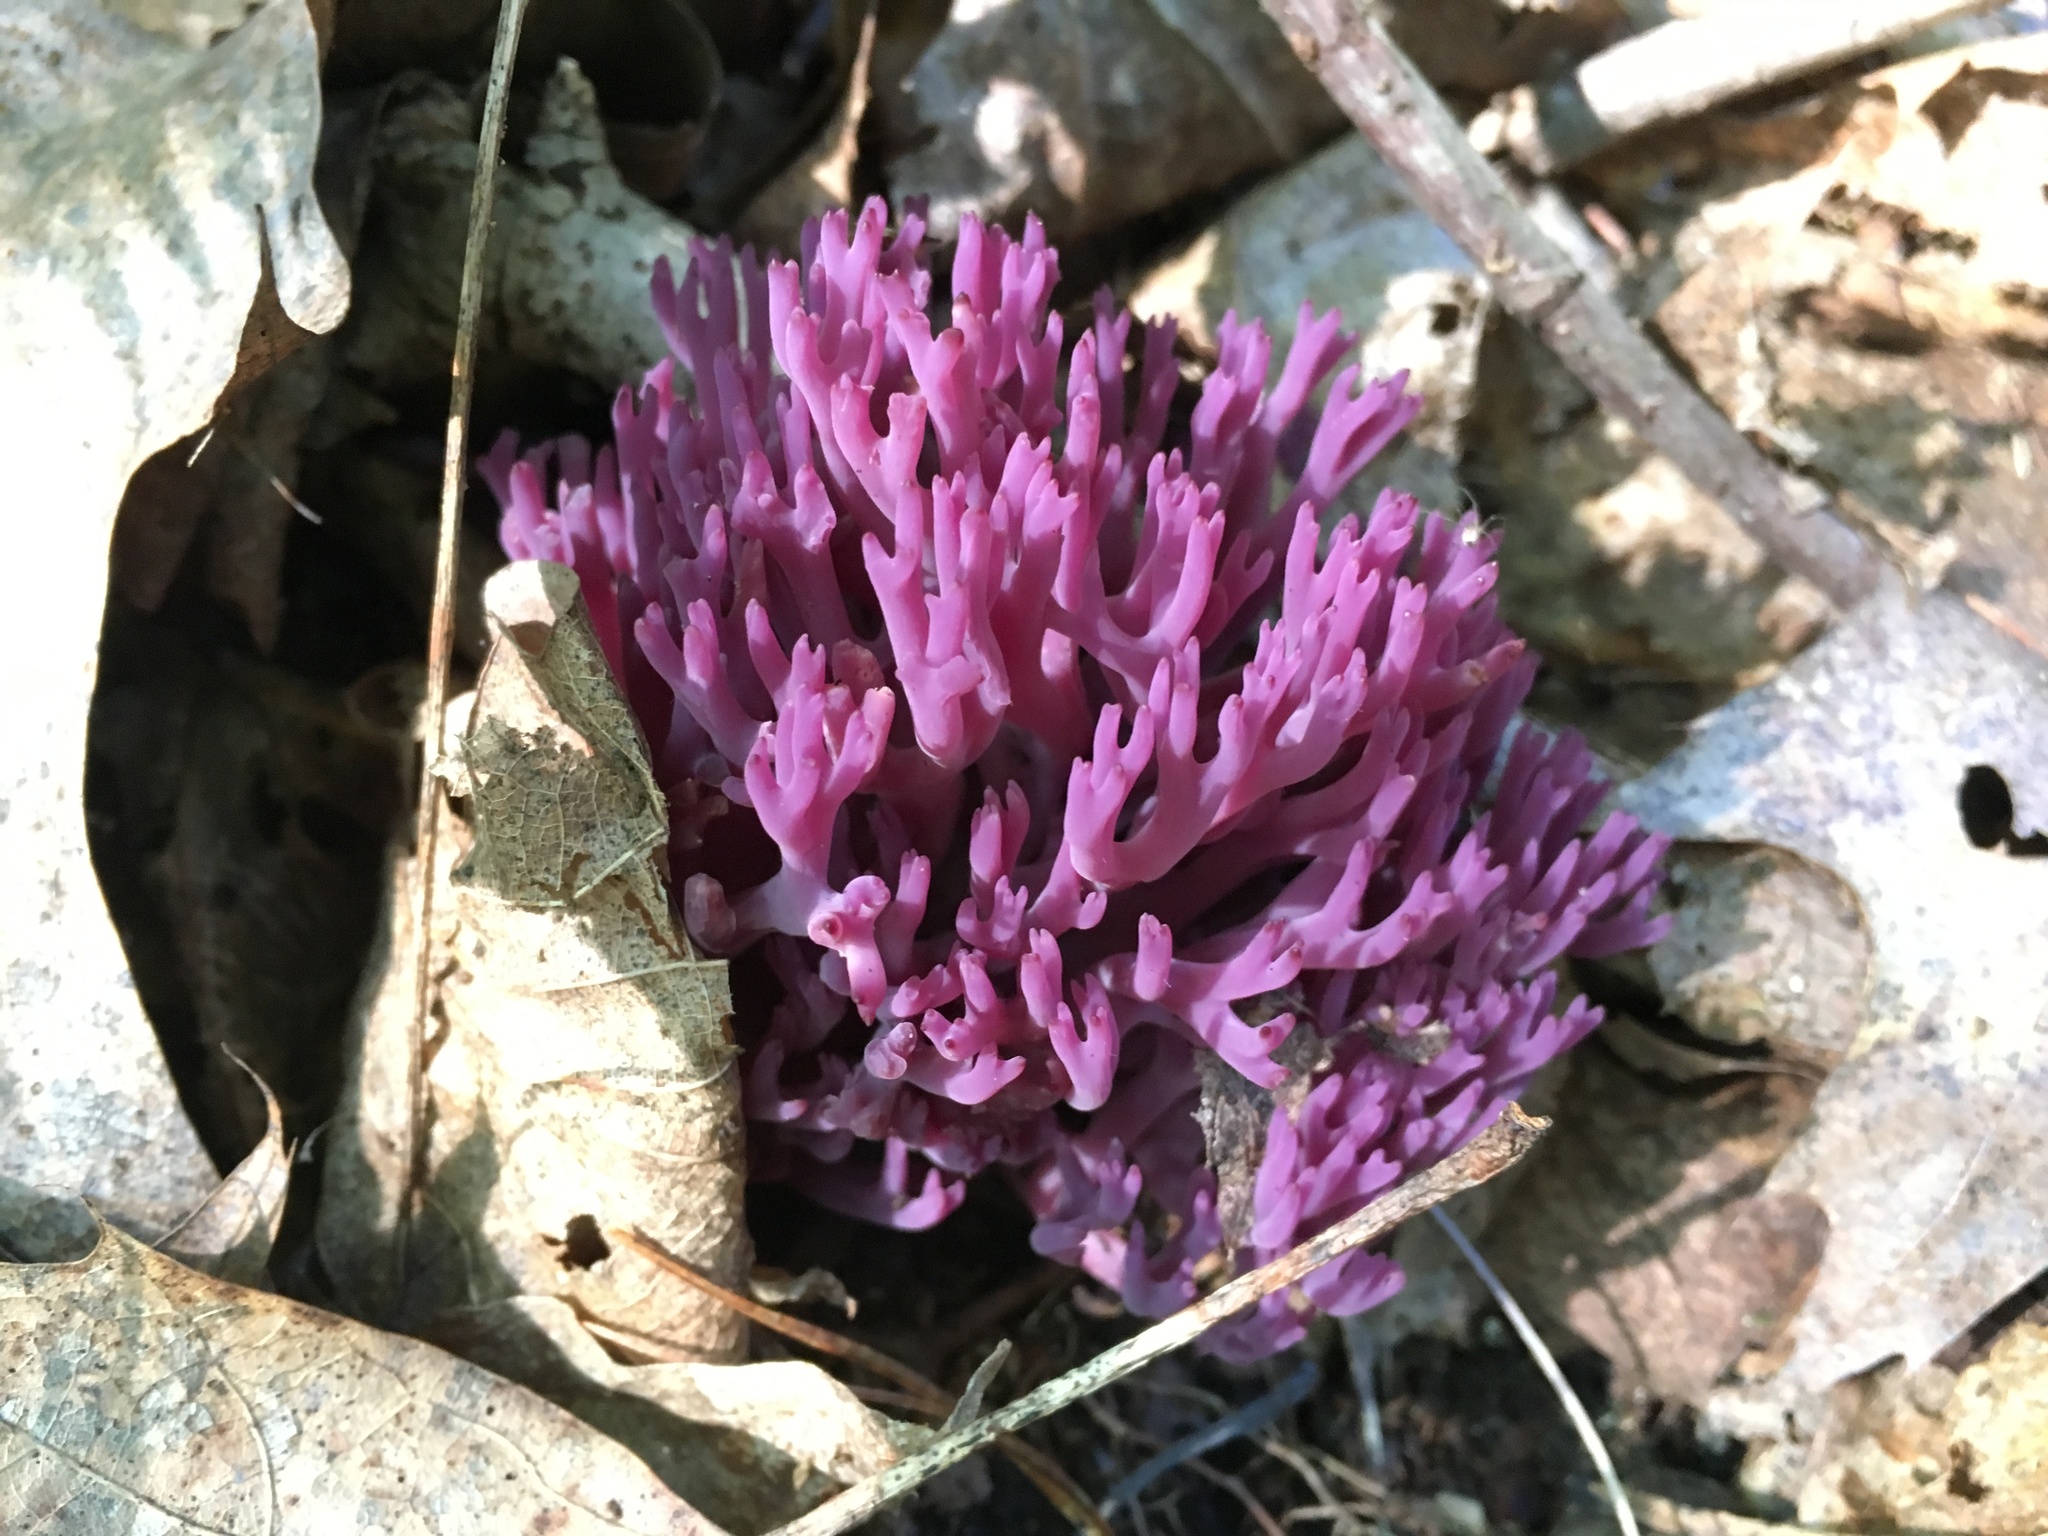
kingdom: Fungi
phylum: Basidiomycota
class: Agaricomycetes
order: Agaricales
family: Clavariaceae
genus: Clavaria
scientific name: Clavaria zollingeri
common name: Violet coral
